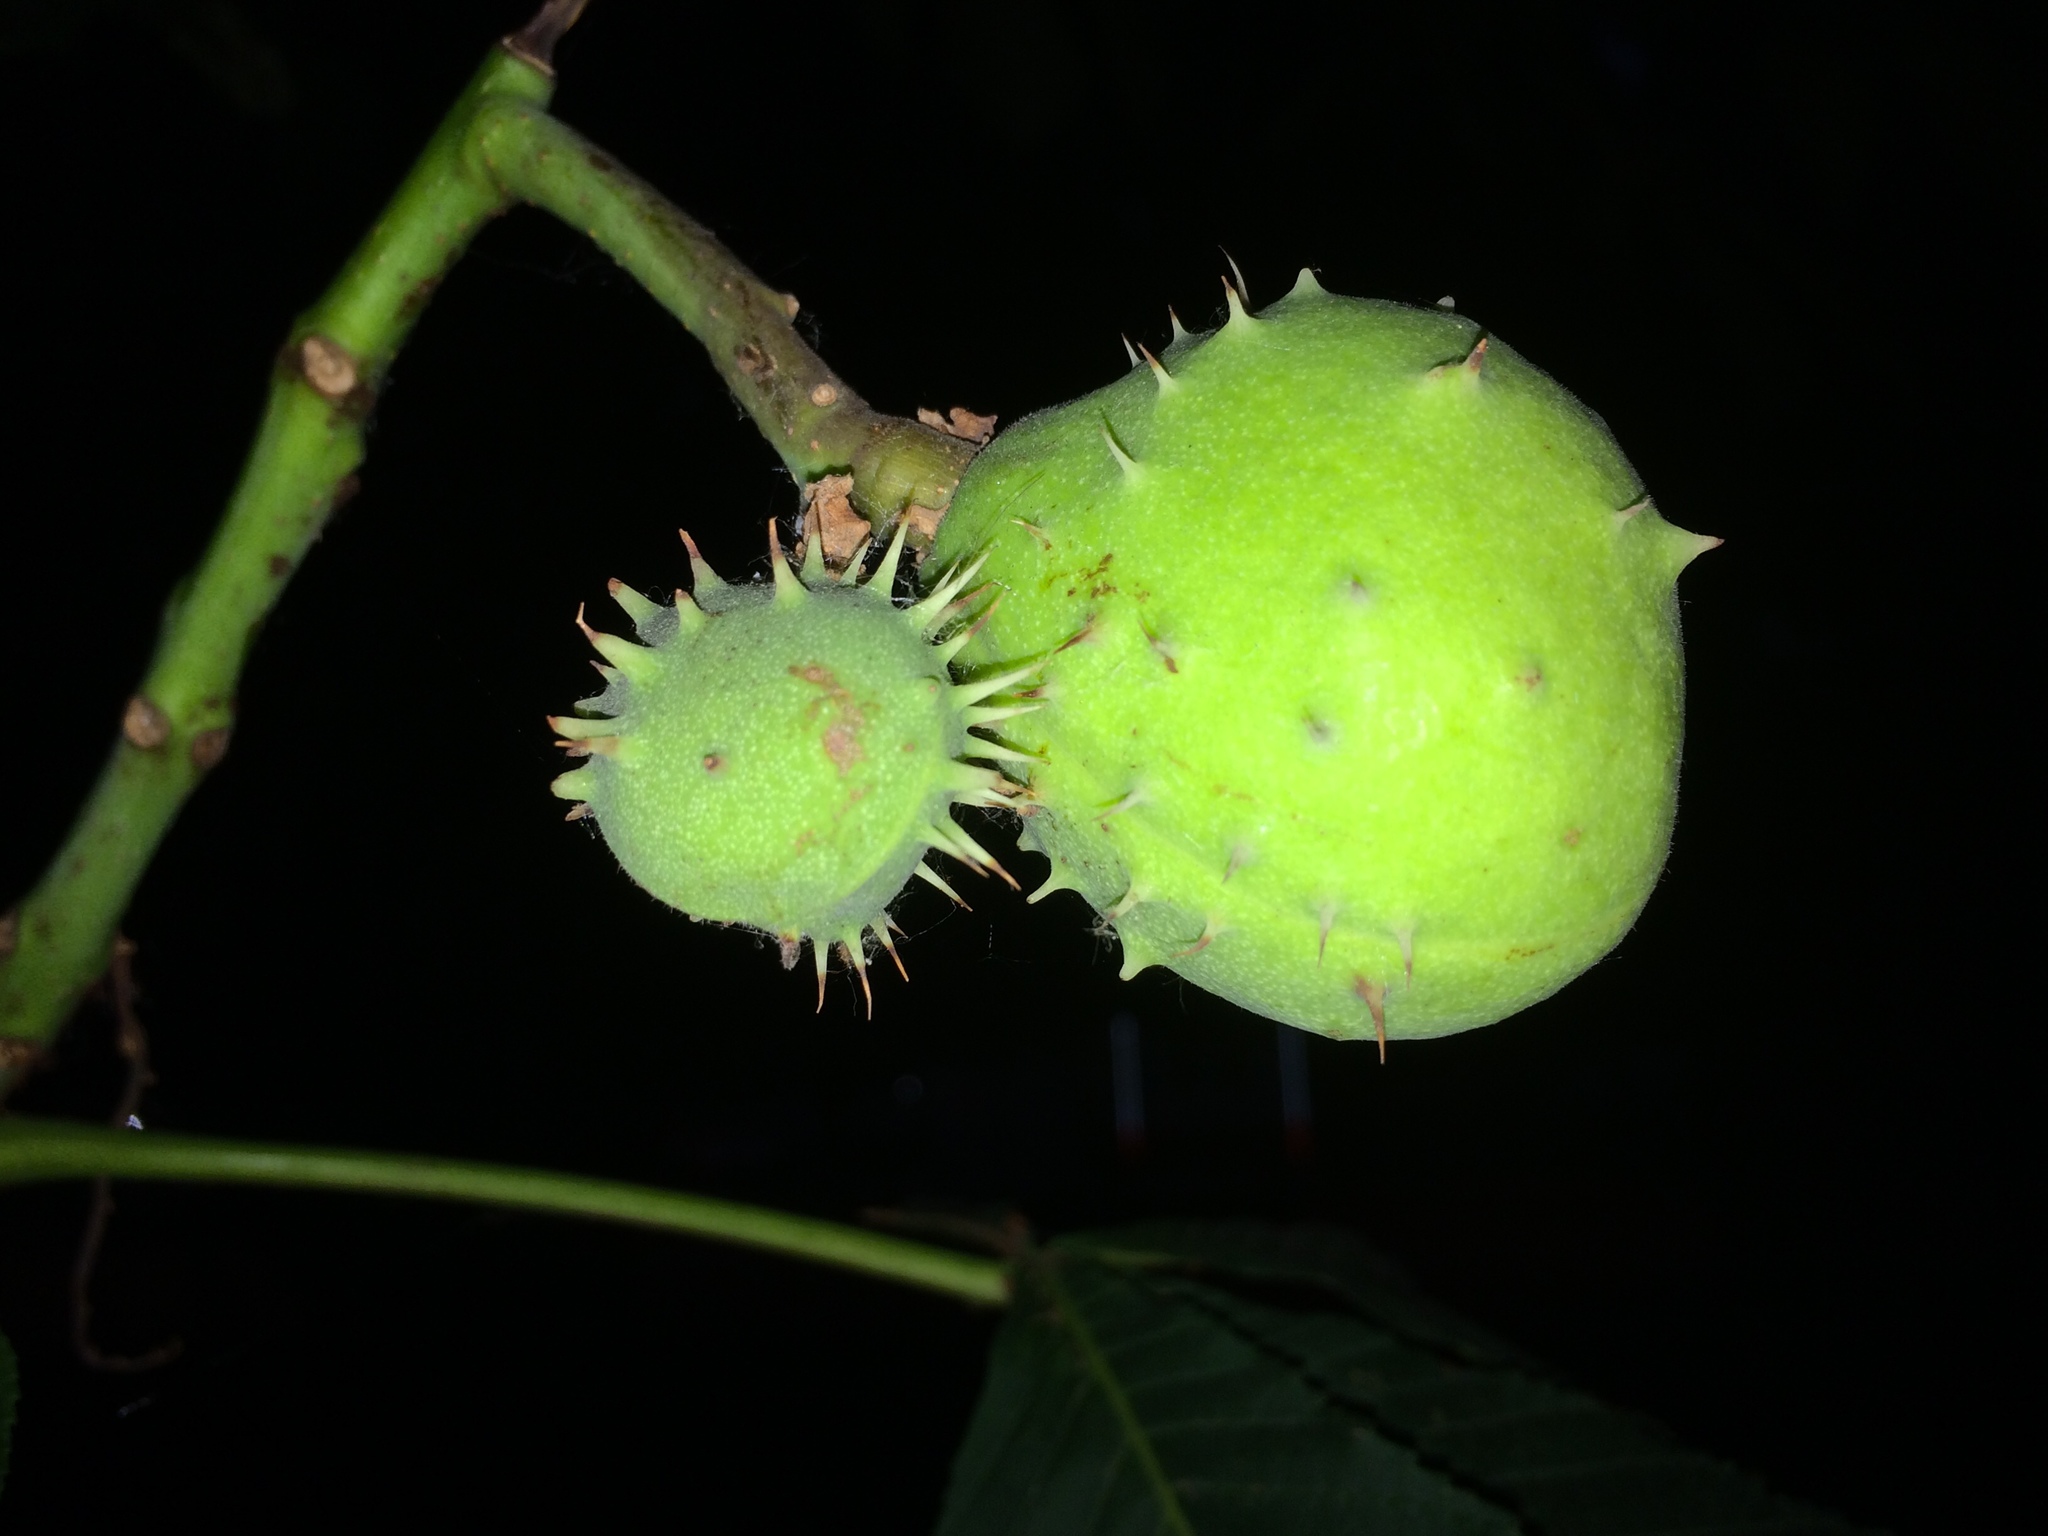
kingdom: Plantae
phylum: Tracheophyta
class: Magnoliopsida
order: Sapindales
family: Sapindaceae
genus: Aesculus
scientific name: Aesculus hippocastanum
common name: Horse-chestnut
